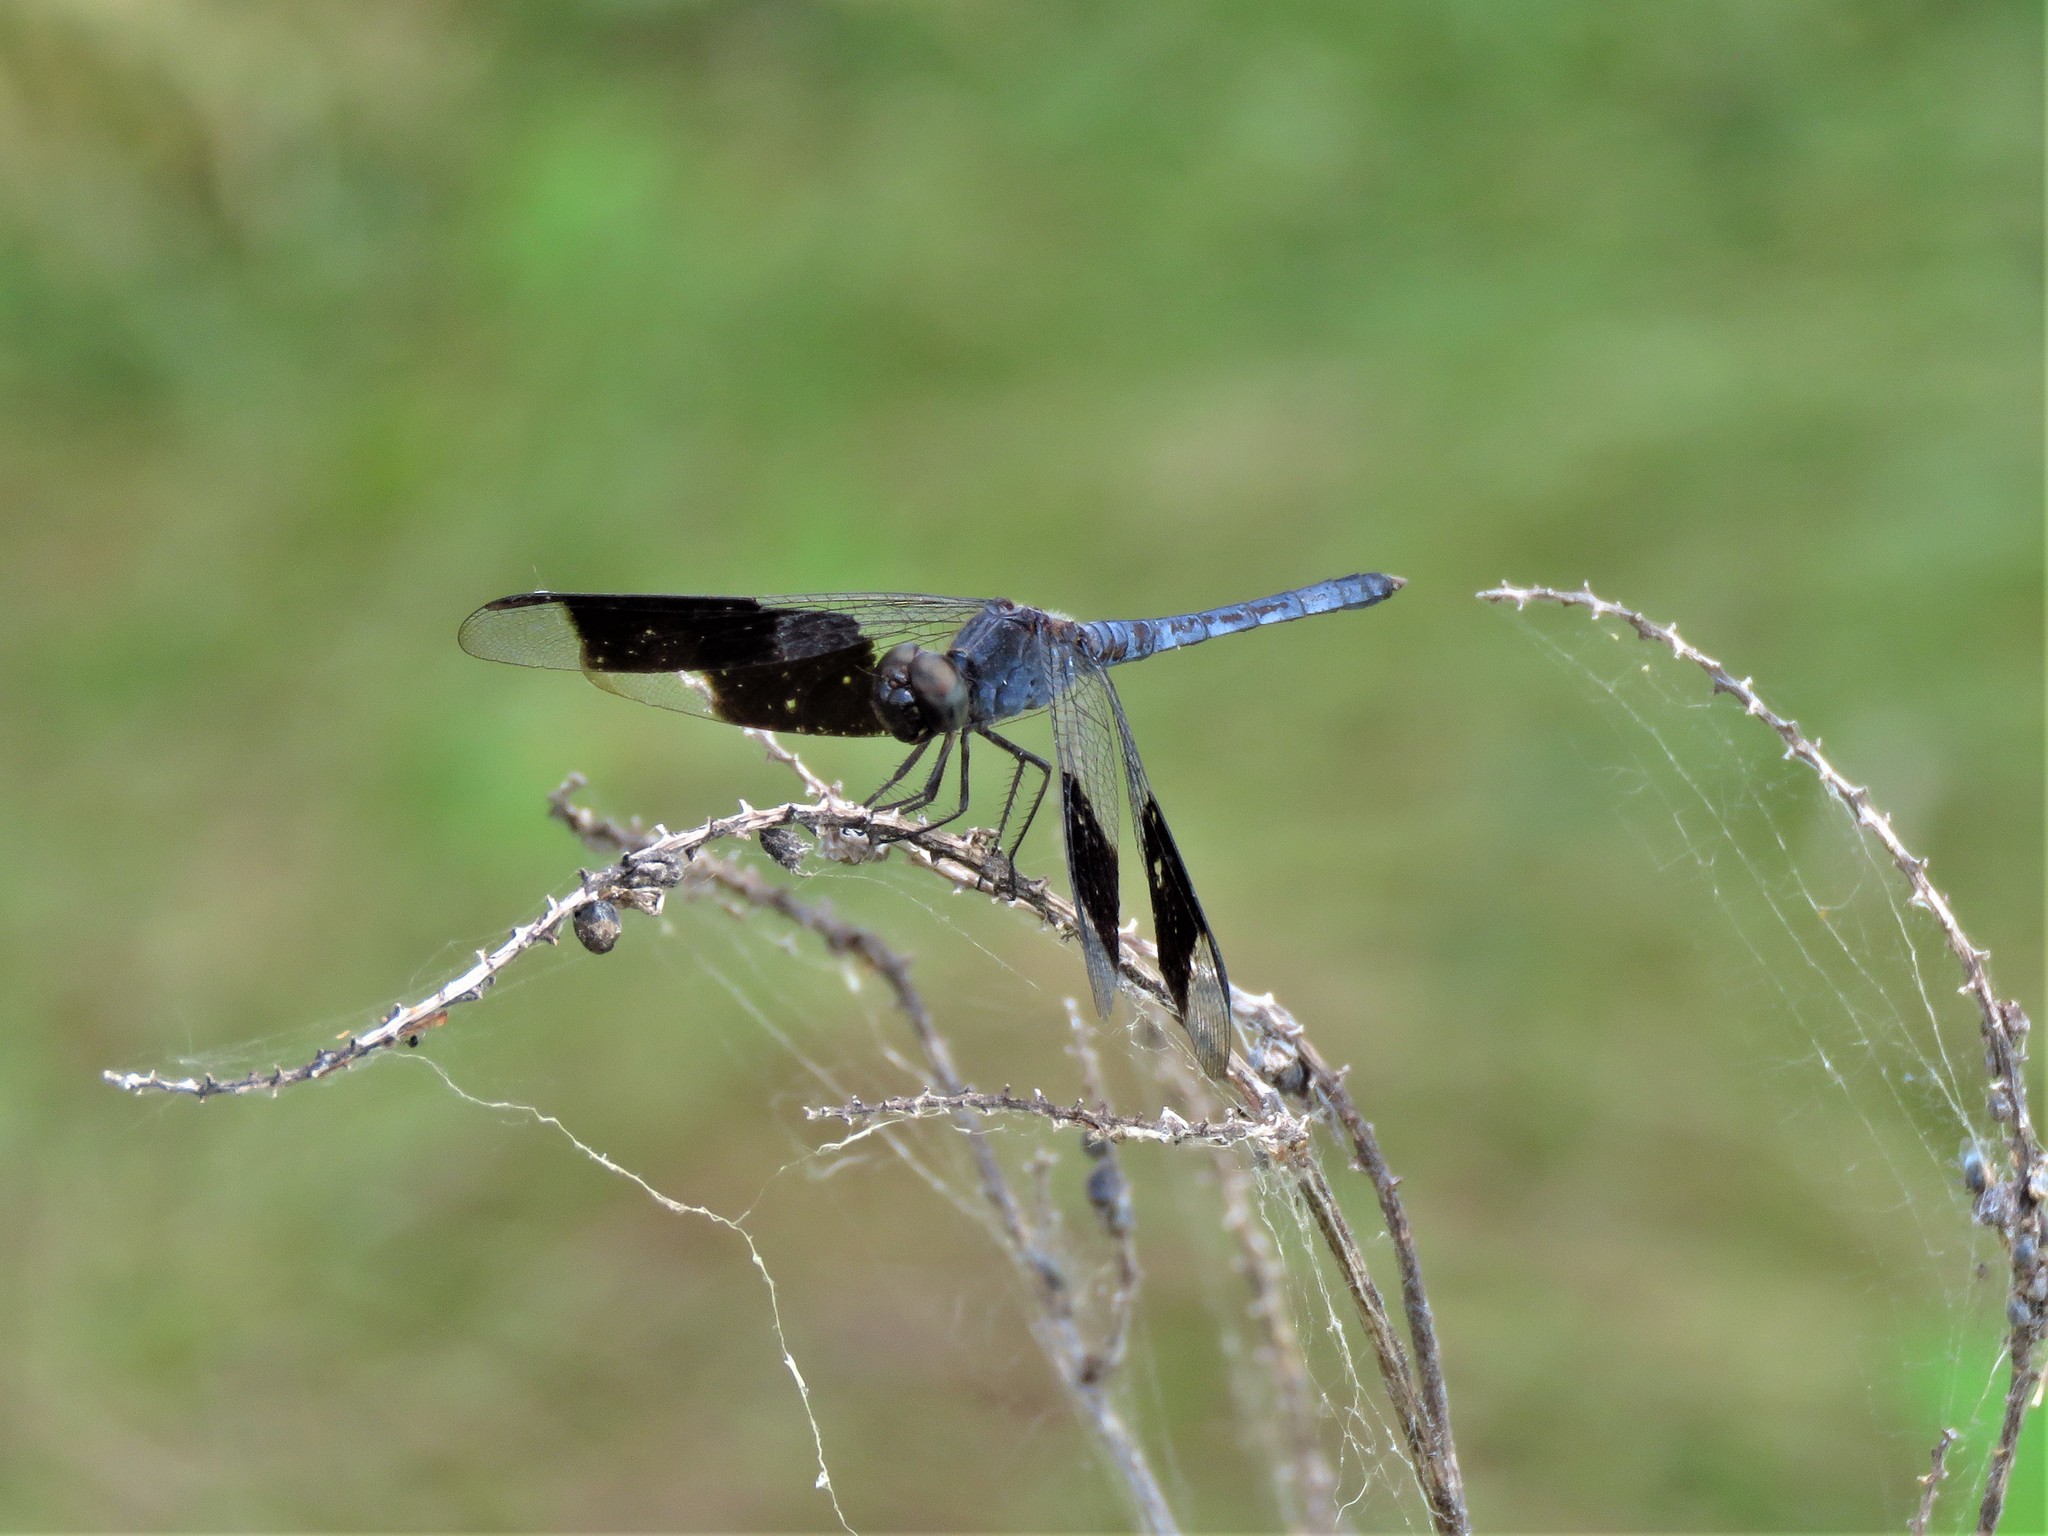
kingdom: Animalia
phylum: Arthropoda
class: Insecta
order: Odonata
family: Libellulidae
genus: Erythrodiplax
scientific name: Erythrodiplax umbrata
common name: Band-winged dragonlet
